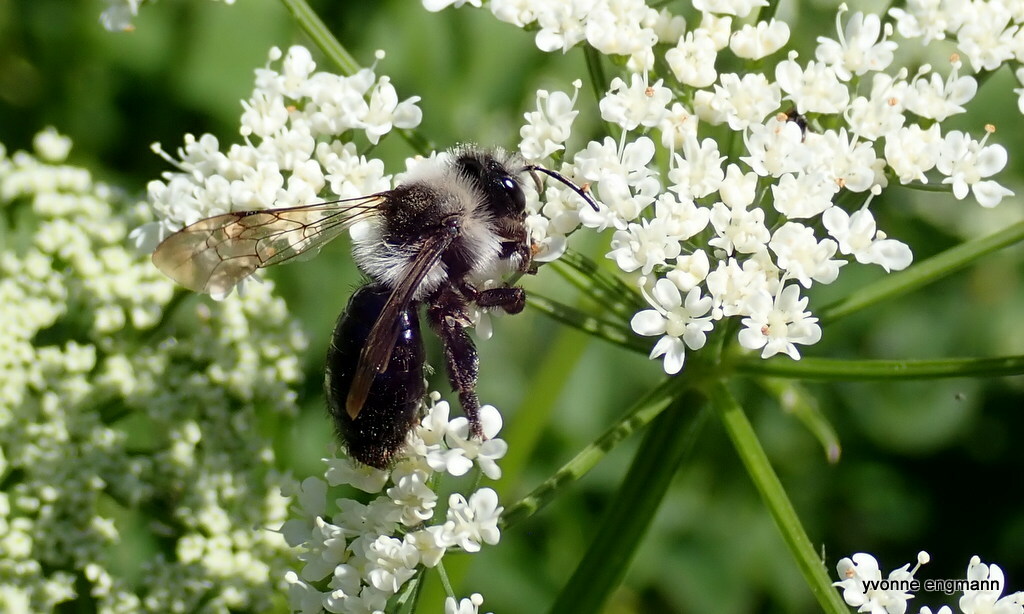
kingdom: Animalia
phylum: Arthropoda
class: Insecta
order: Hymenoptera
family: Andrenidae
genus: Andrena
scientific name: Andrena cineraria
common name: Ashy mining bee
